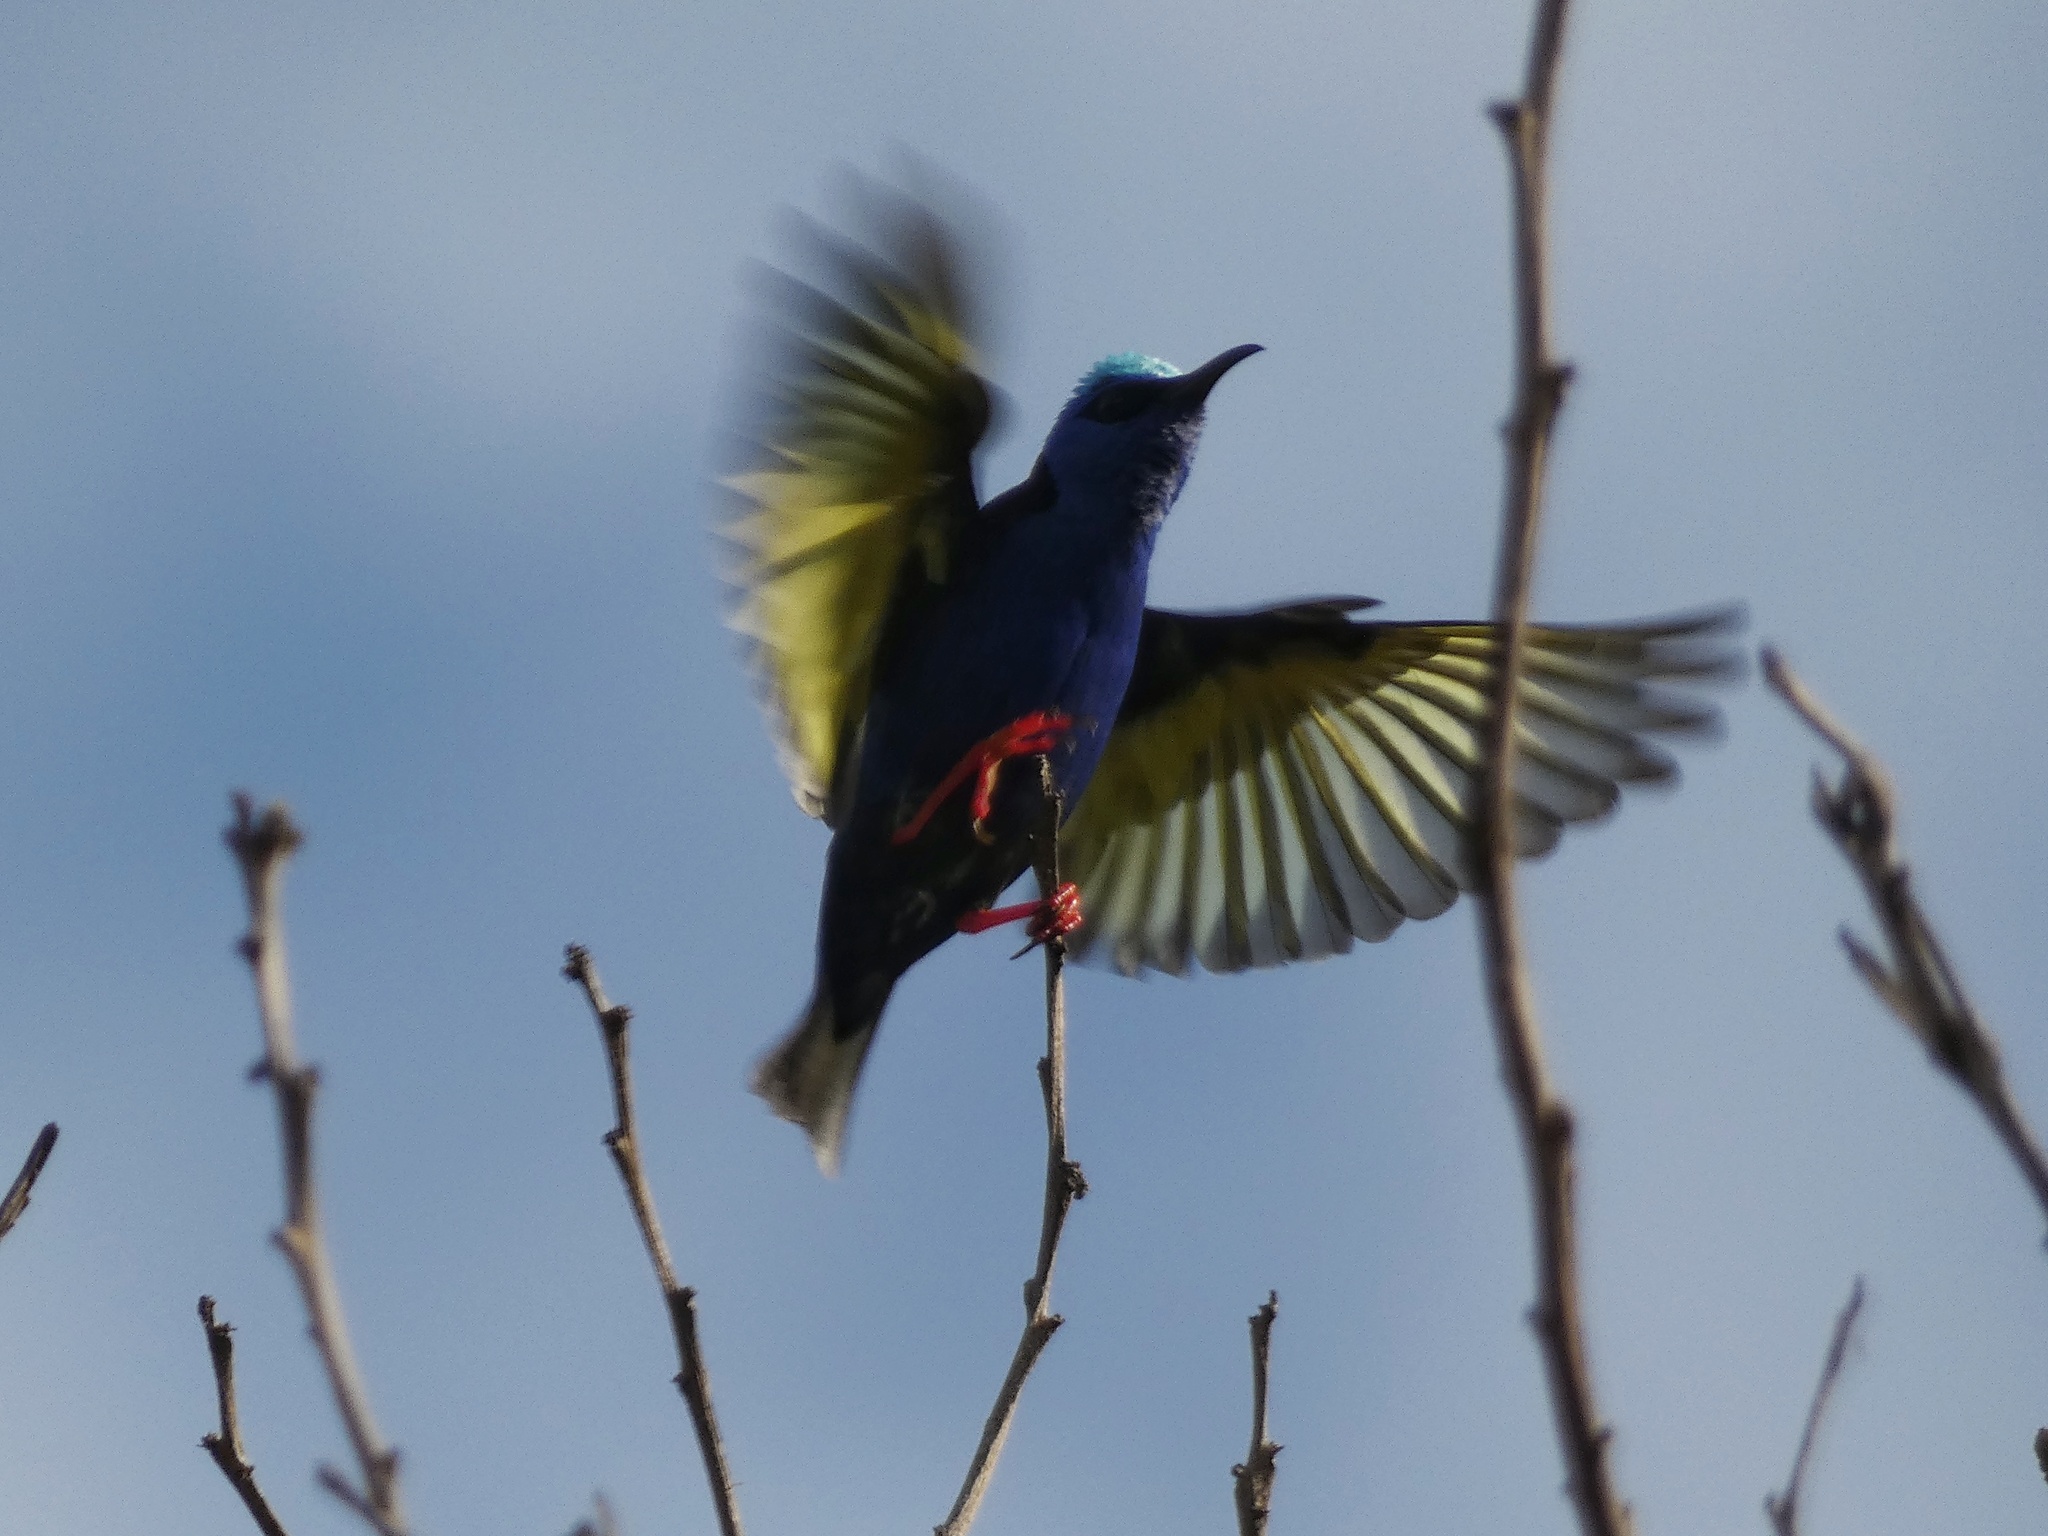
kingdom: Animalia
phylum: Chordata
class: Aves
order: Passeriformes
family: Thraupidae
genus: Cyanerpes
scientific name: Cyanerpes cyaneus
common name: Red-legged honeycreeper
